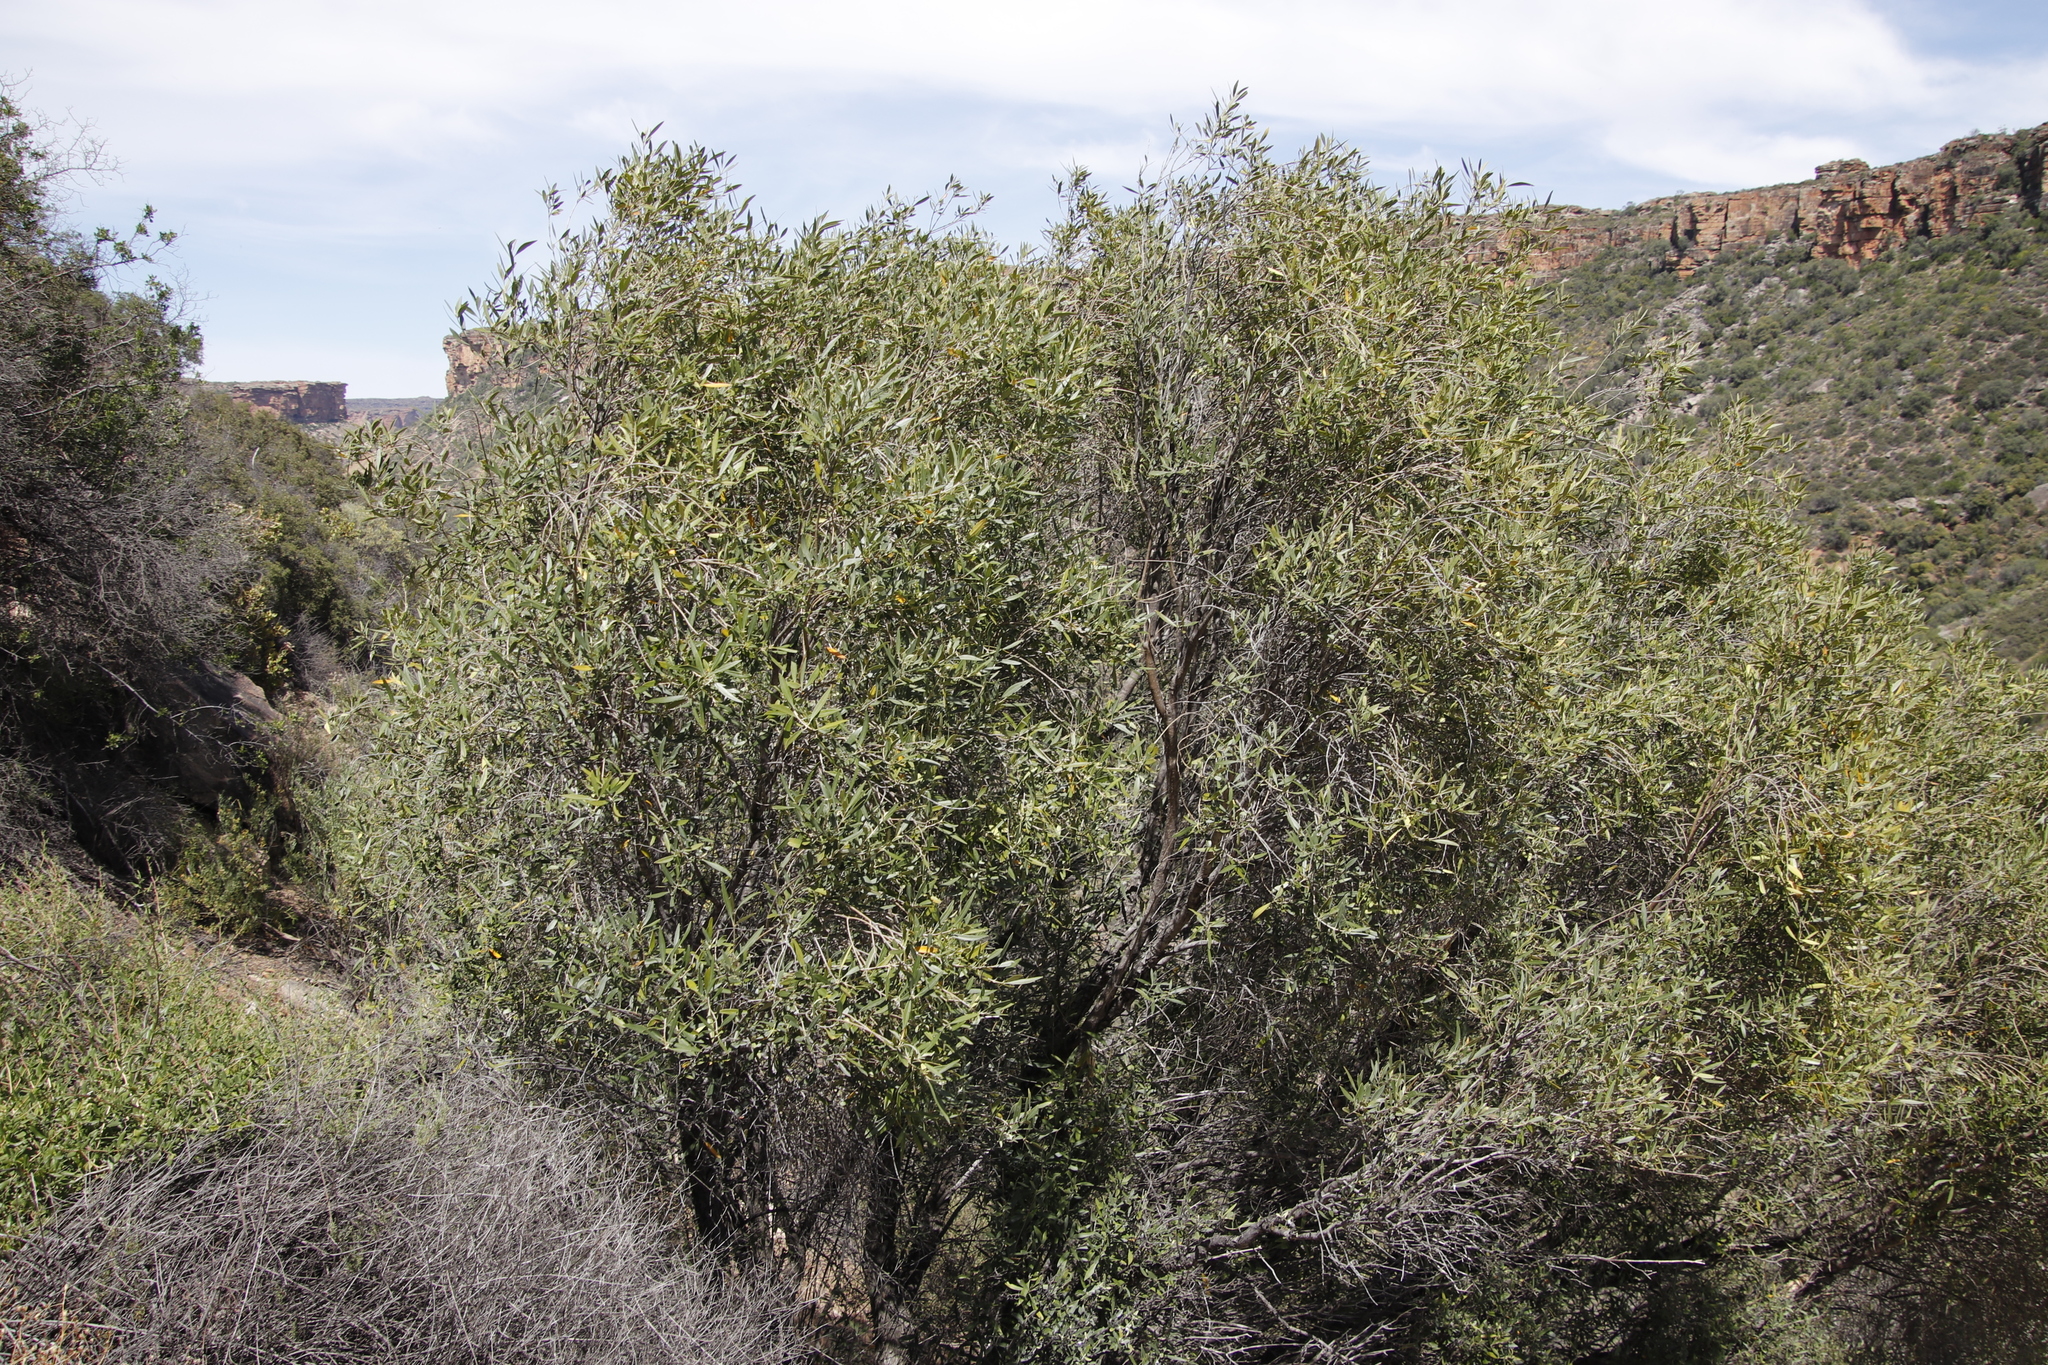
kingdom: Plantae
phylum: Tracheophyta
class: Magnoliopsida
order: Lamiales
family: Oleaceae
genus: Olea
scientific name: Olea europaea
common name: Olive
